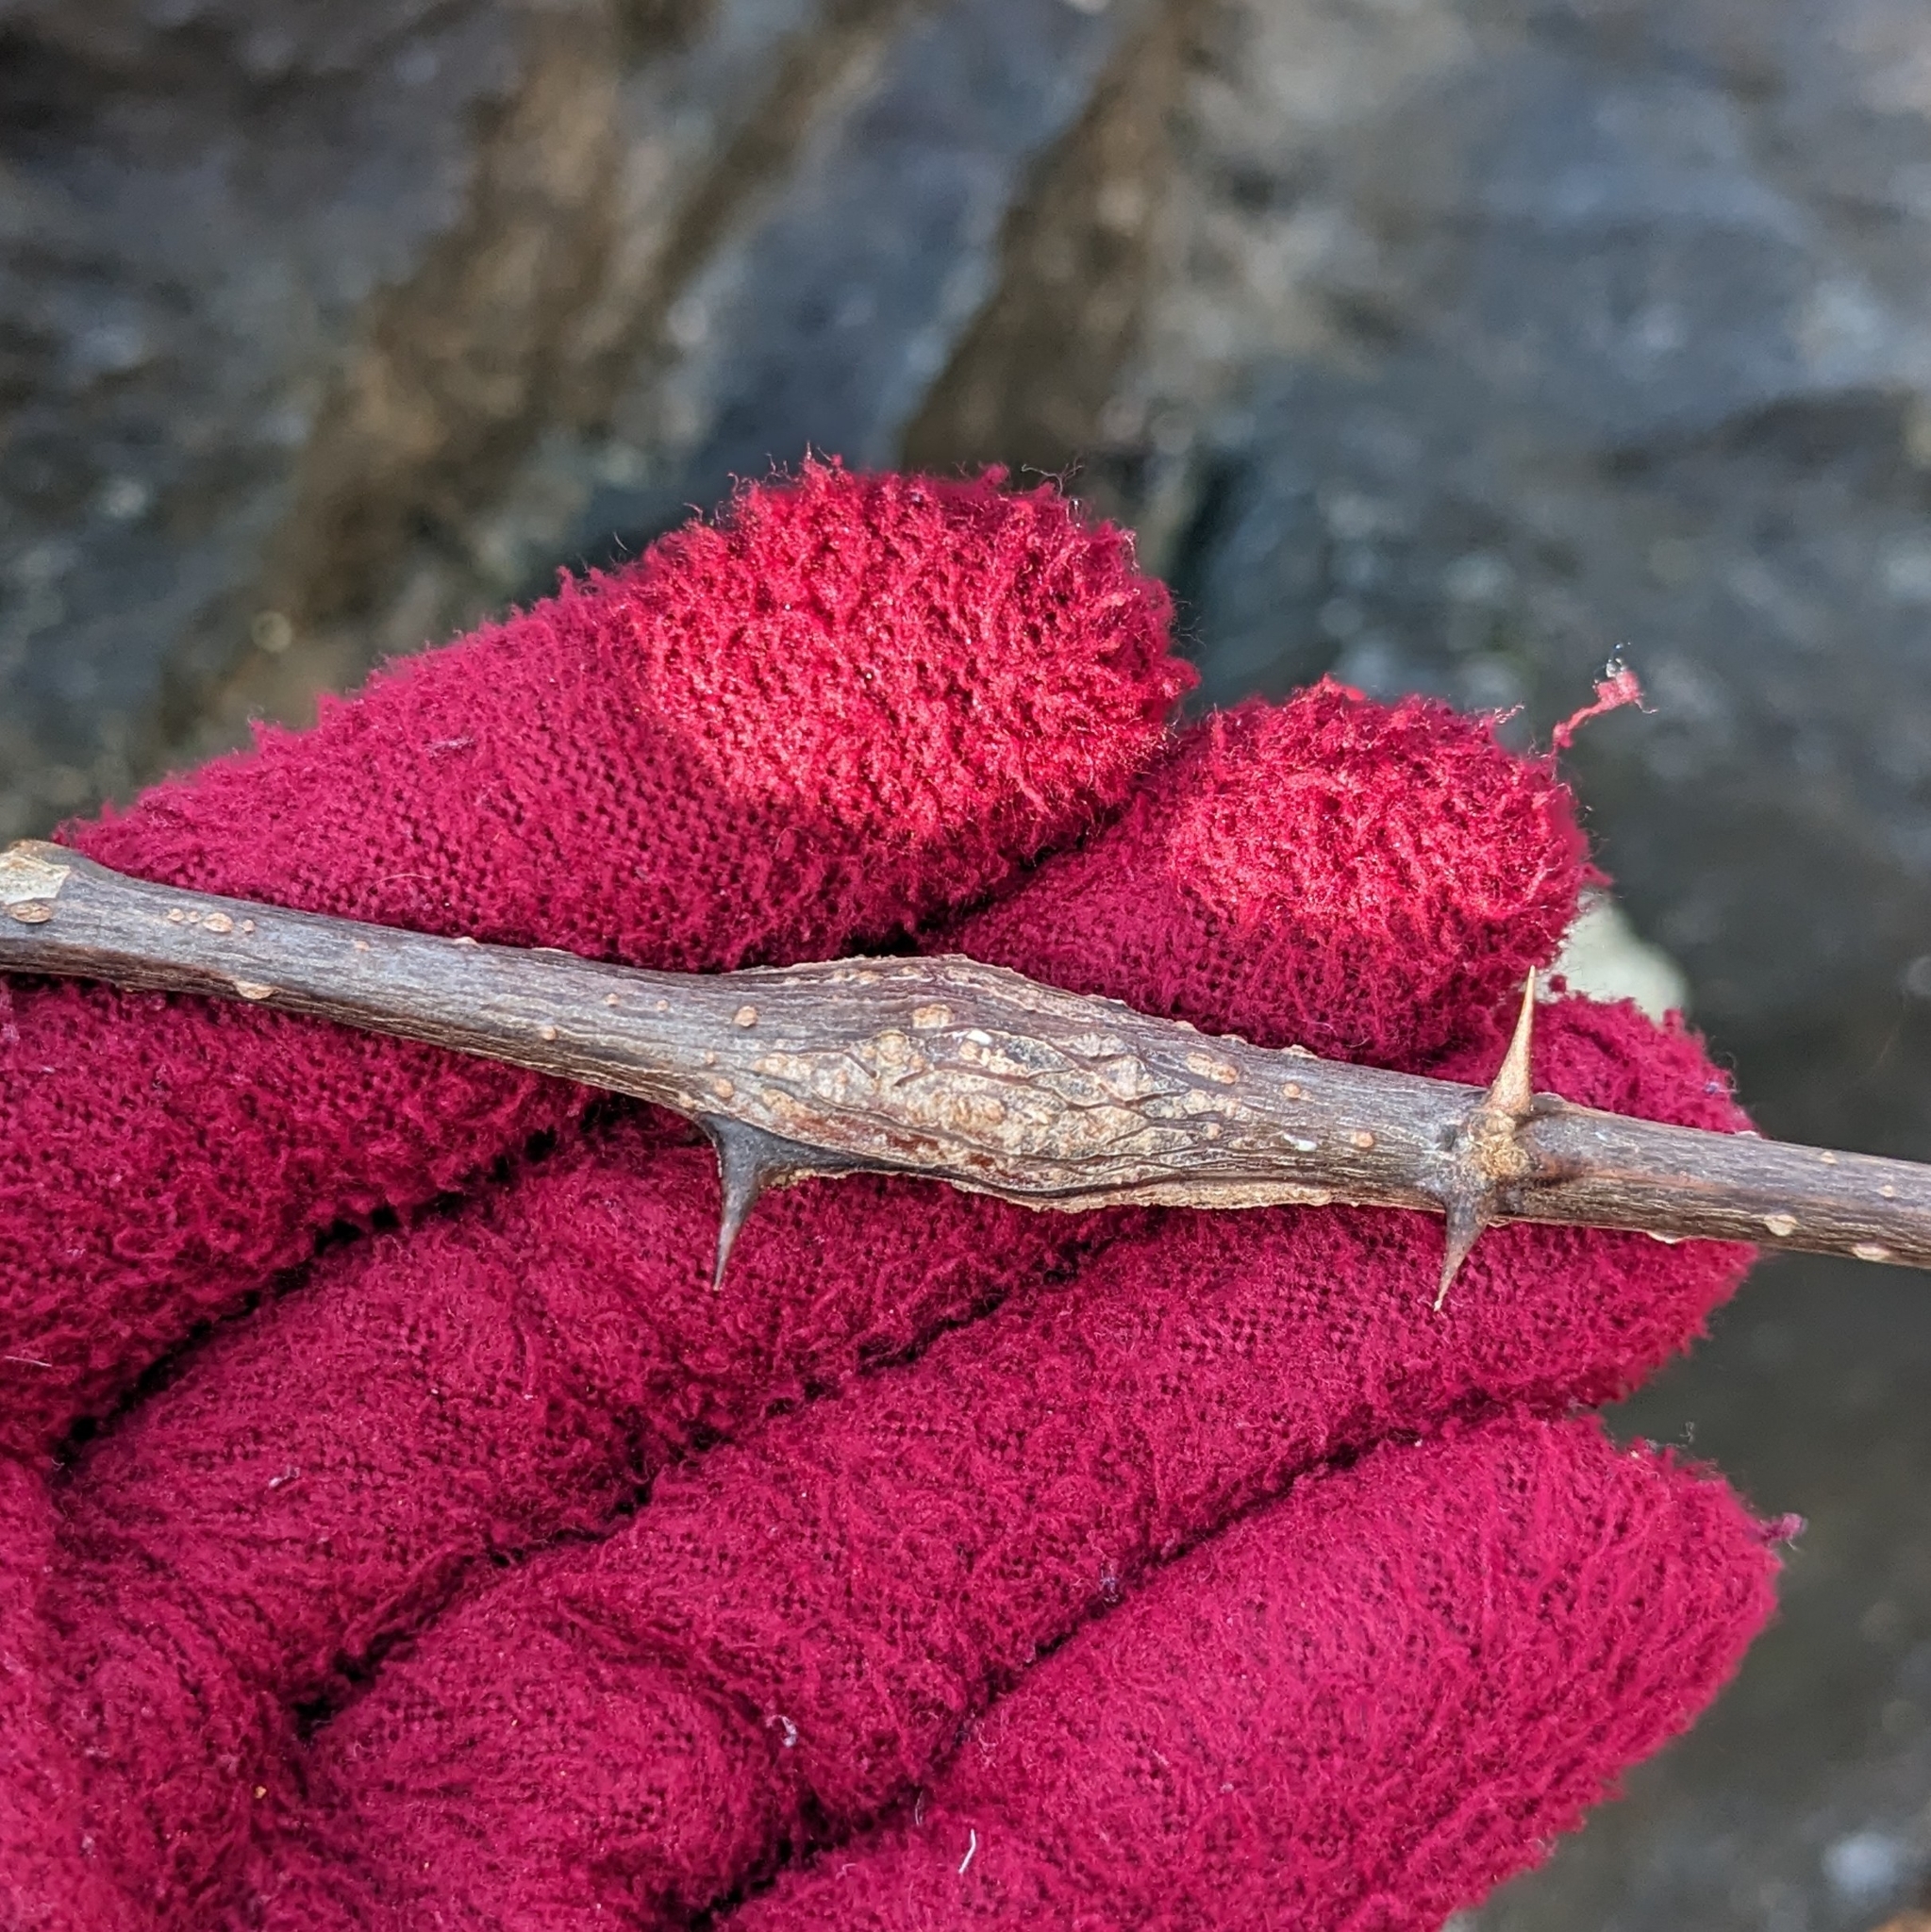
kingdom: Animalia
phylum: Arthropoda
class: Insecta
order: Lepidoptera
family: Tortricidae
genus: Ecdytolopha
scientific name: Ecdytolopha insiticiana
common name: Locust twig borer moth
